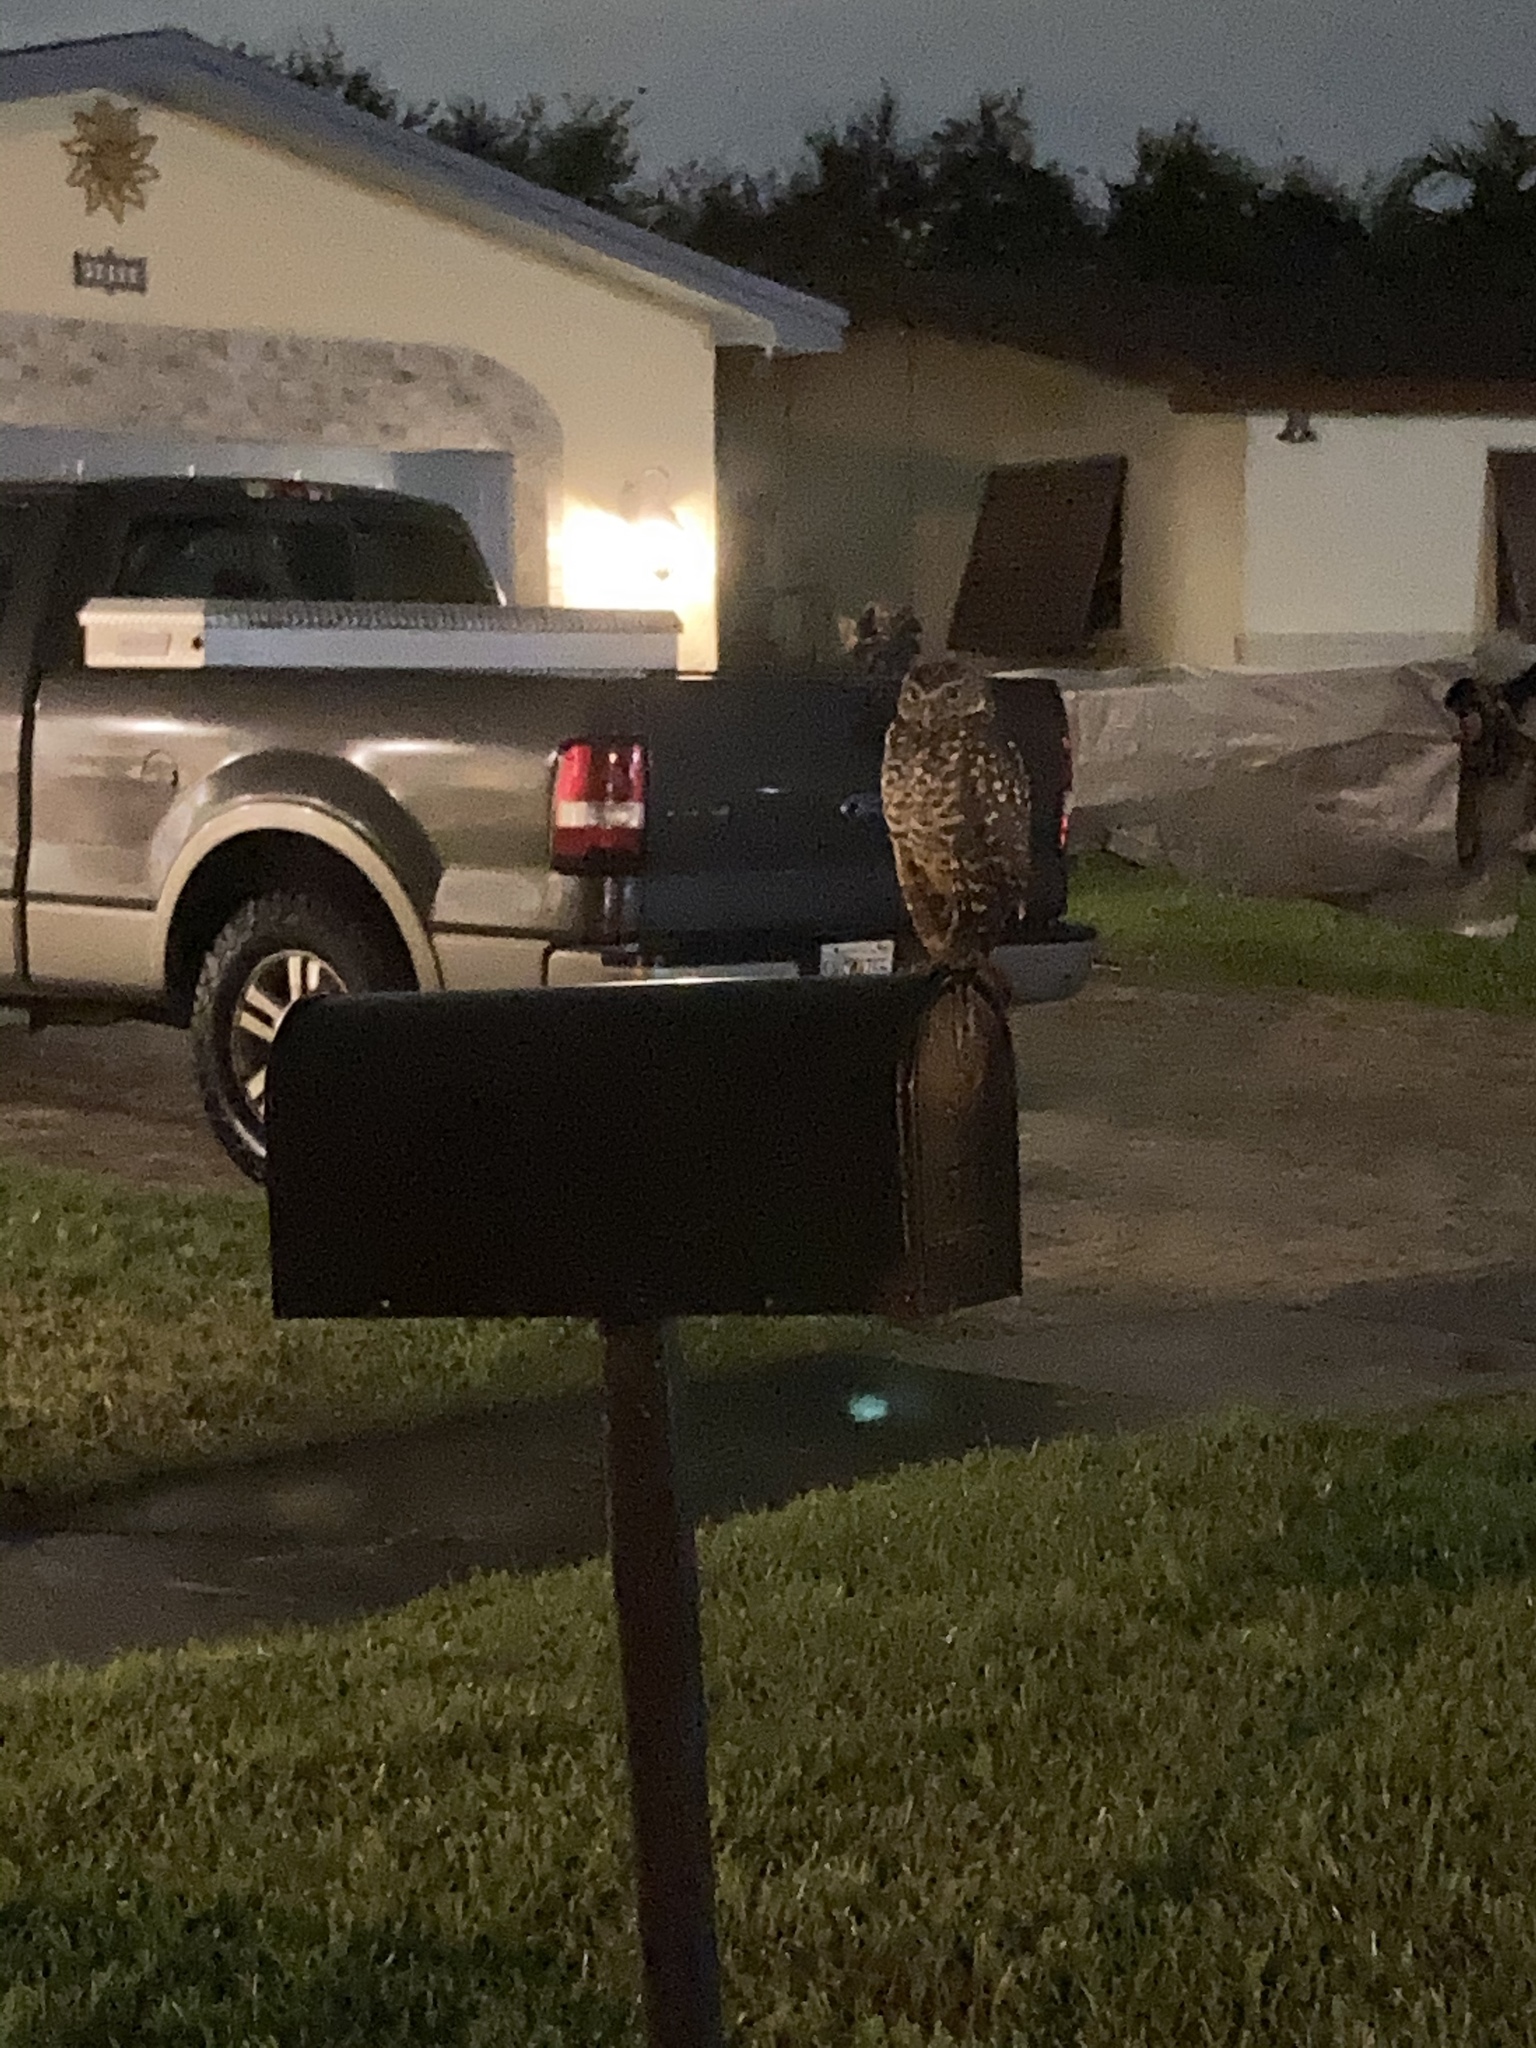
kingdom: Animalia
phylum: Chordata
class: Aves
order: Strigiformes
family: Strigidae
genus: Athene
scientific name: Athene cunicularia
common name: Burrowing owl
